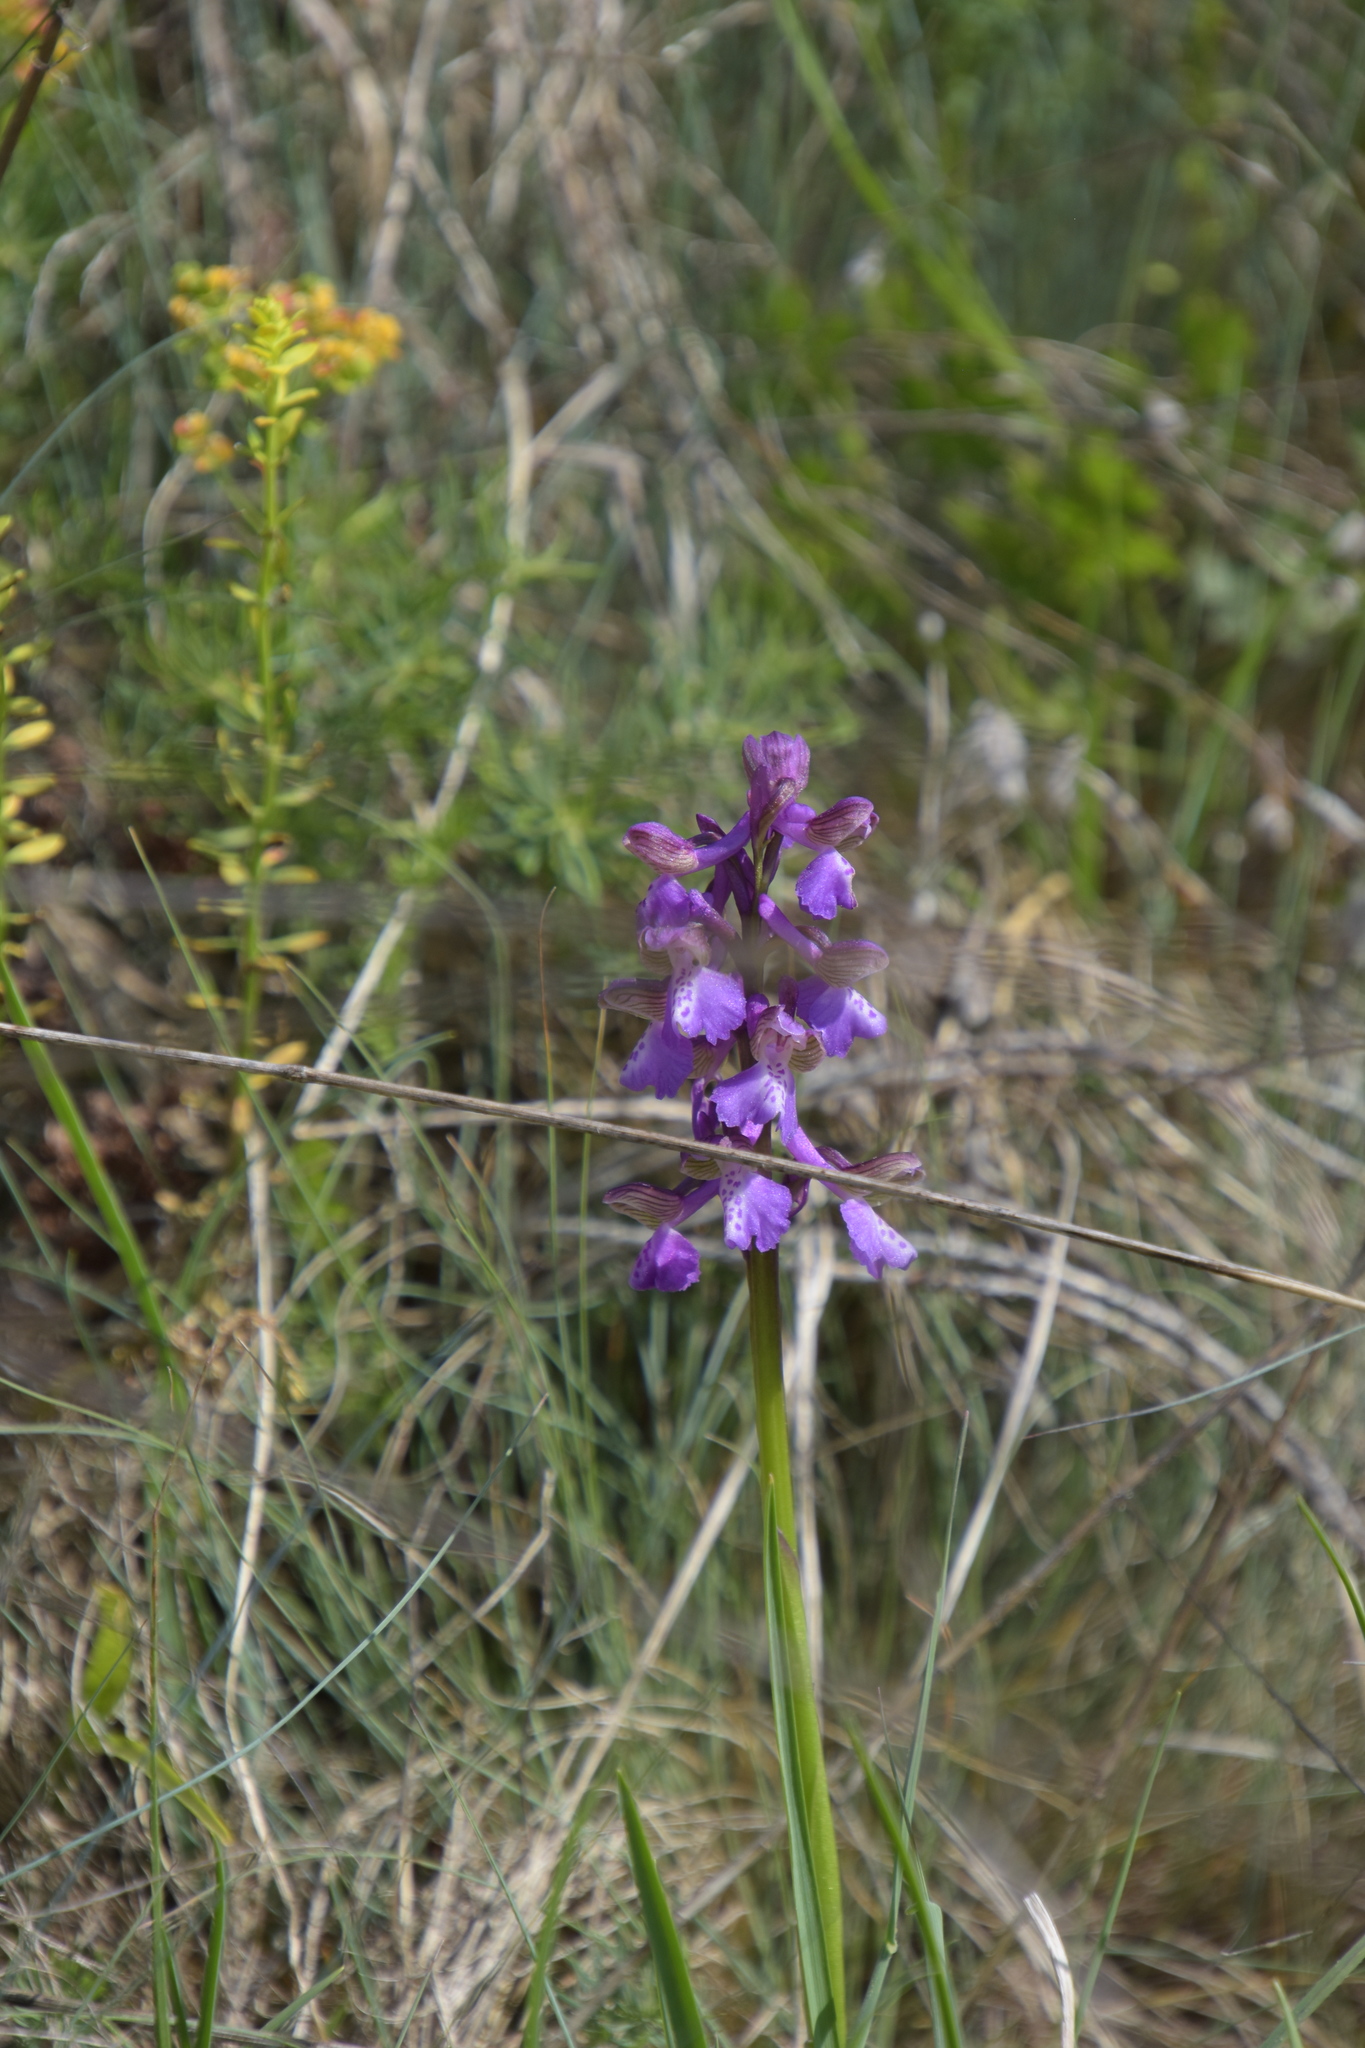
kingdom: Plantae
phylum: Tracheophyta
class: Liliopsida
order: Asparagales
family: Orchidaceae
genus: Anacamptis
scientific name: Anacamptis morio
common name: Green-winged orchid
